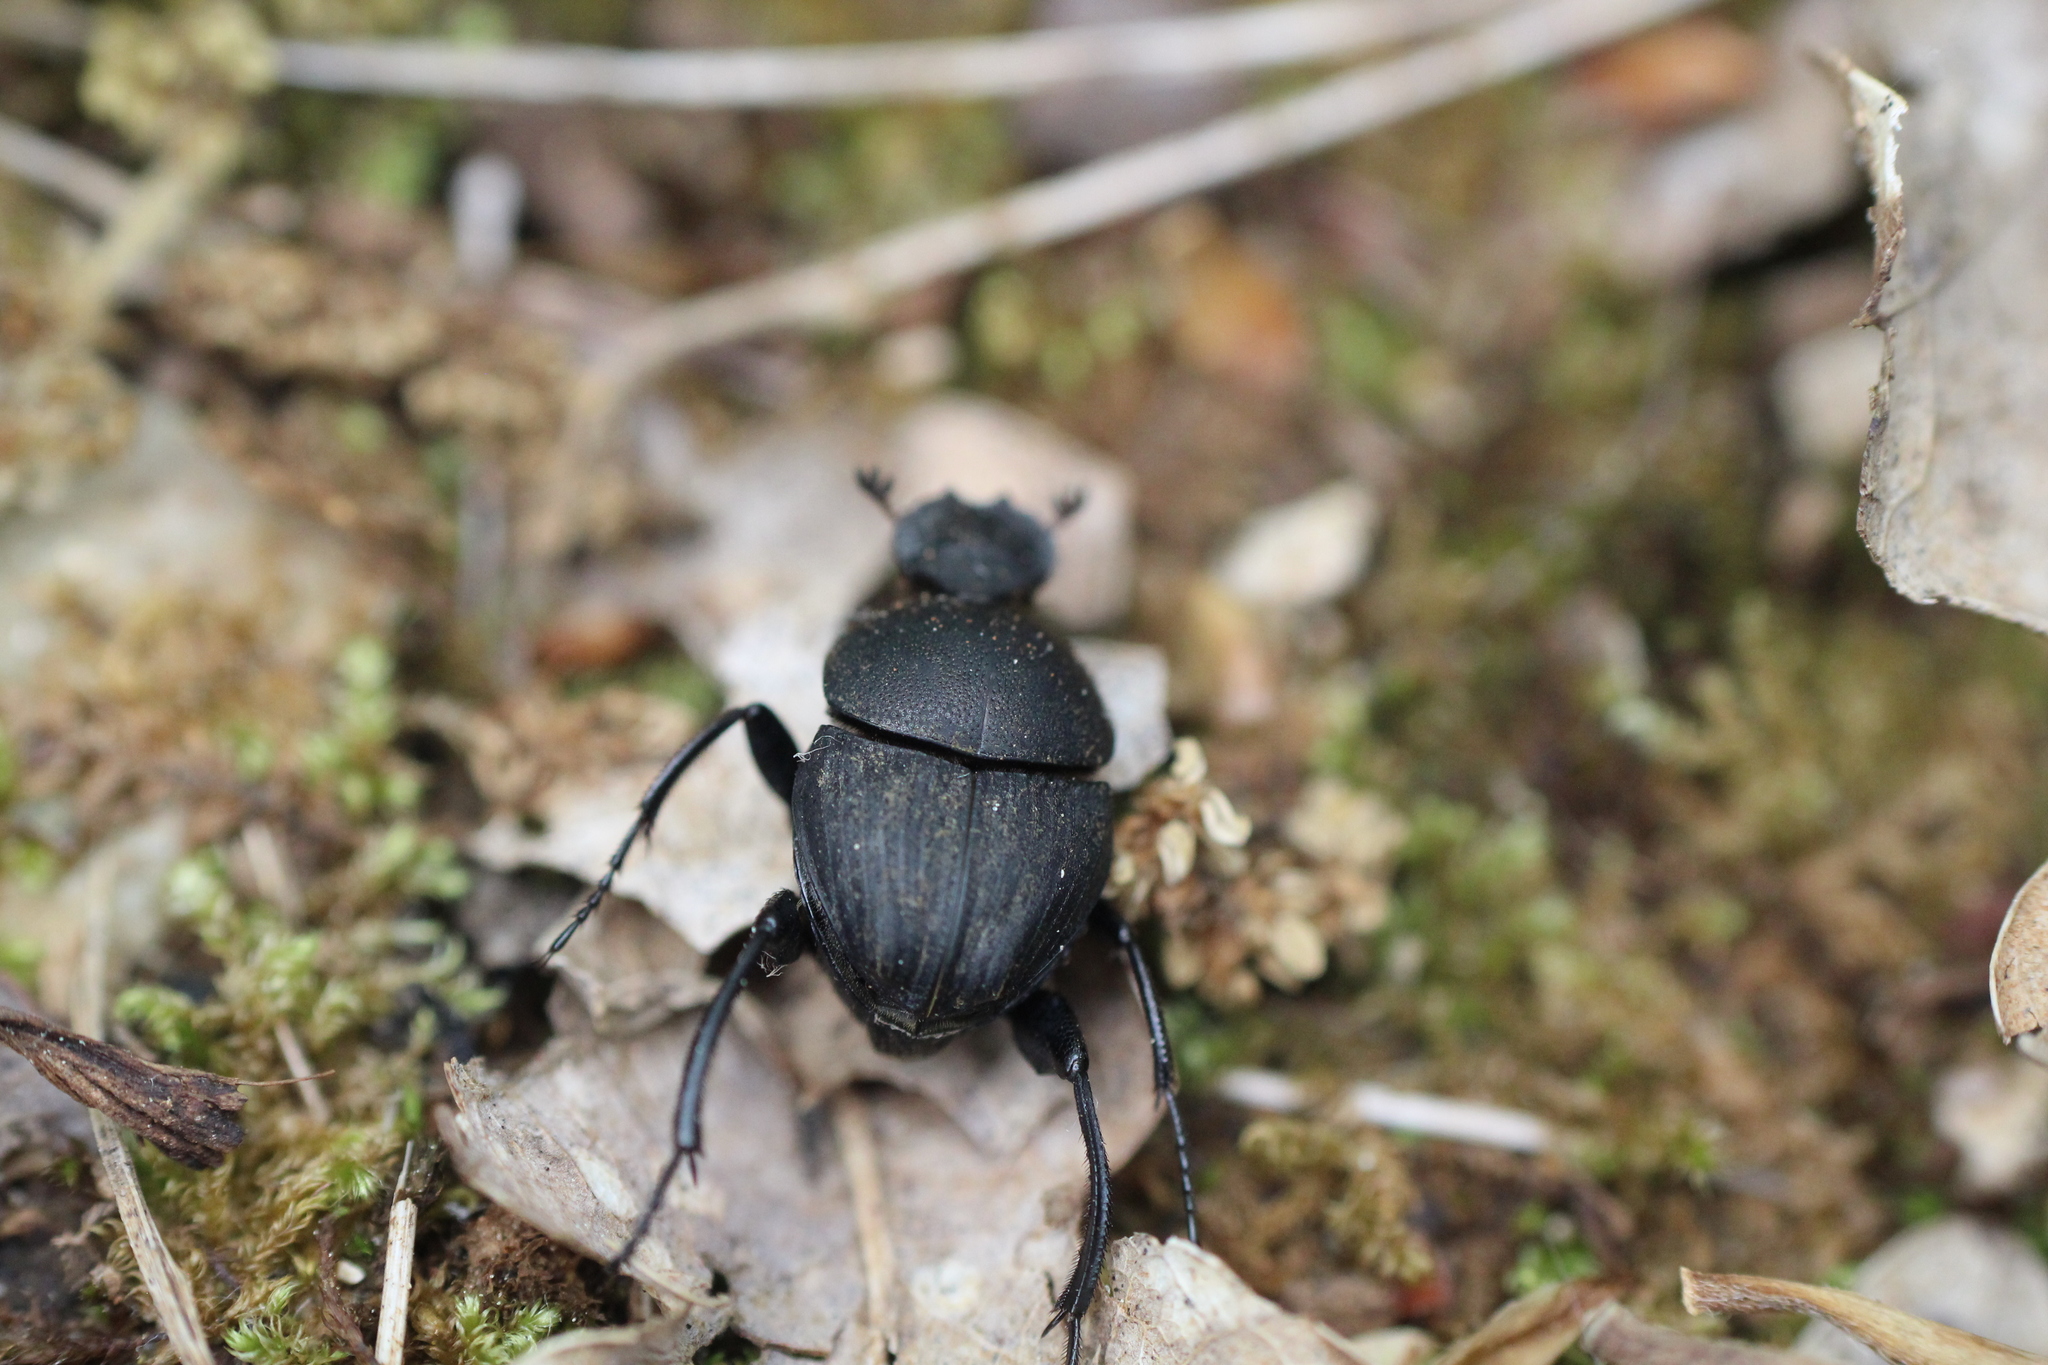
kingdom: Animalia
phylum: Arthropoda
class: Insecta
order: Coleoptera
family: Scarabaeidae
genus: Sisyphus
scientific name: Sisyphus schaefferi
